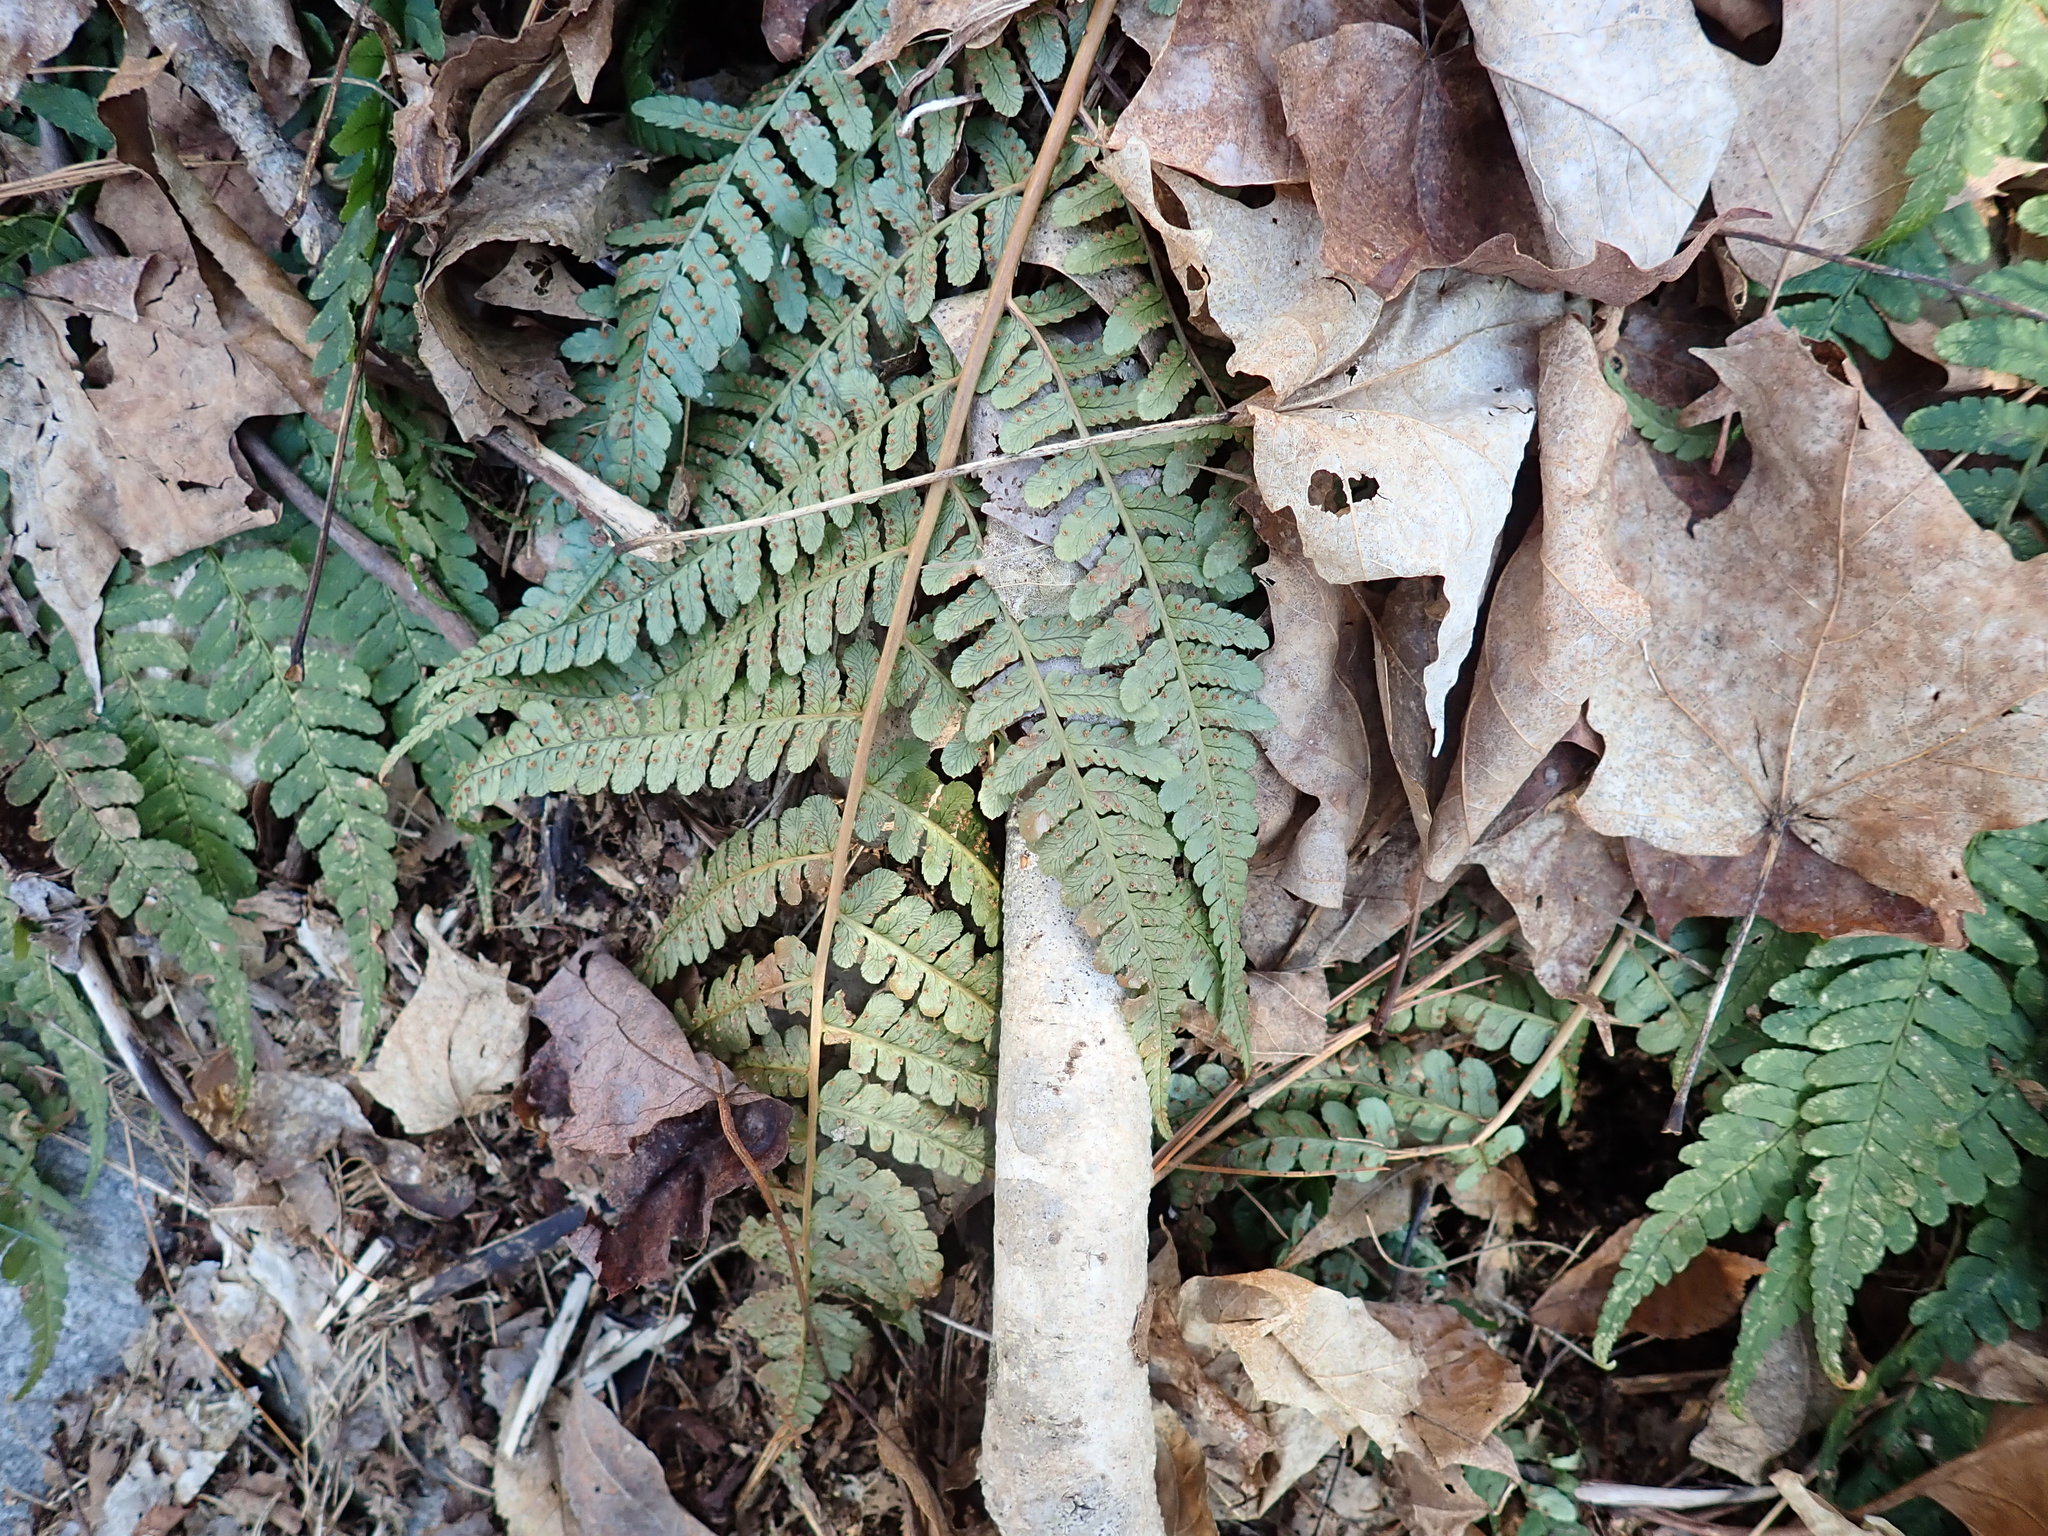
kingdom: Plantae
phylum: Tracheophyta
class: Polypodiopsida
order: Polypodiales
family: Dryopteridaceae
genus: Dryopteris
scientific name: Dryopteris marginalis
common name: Marginal wood fern
